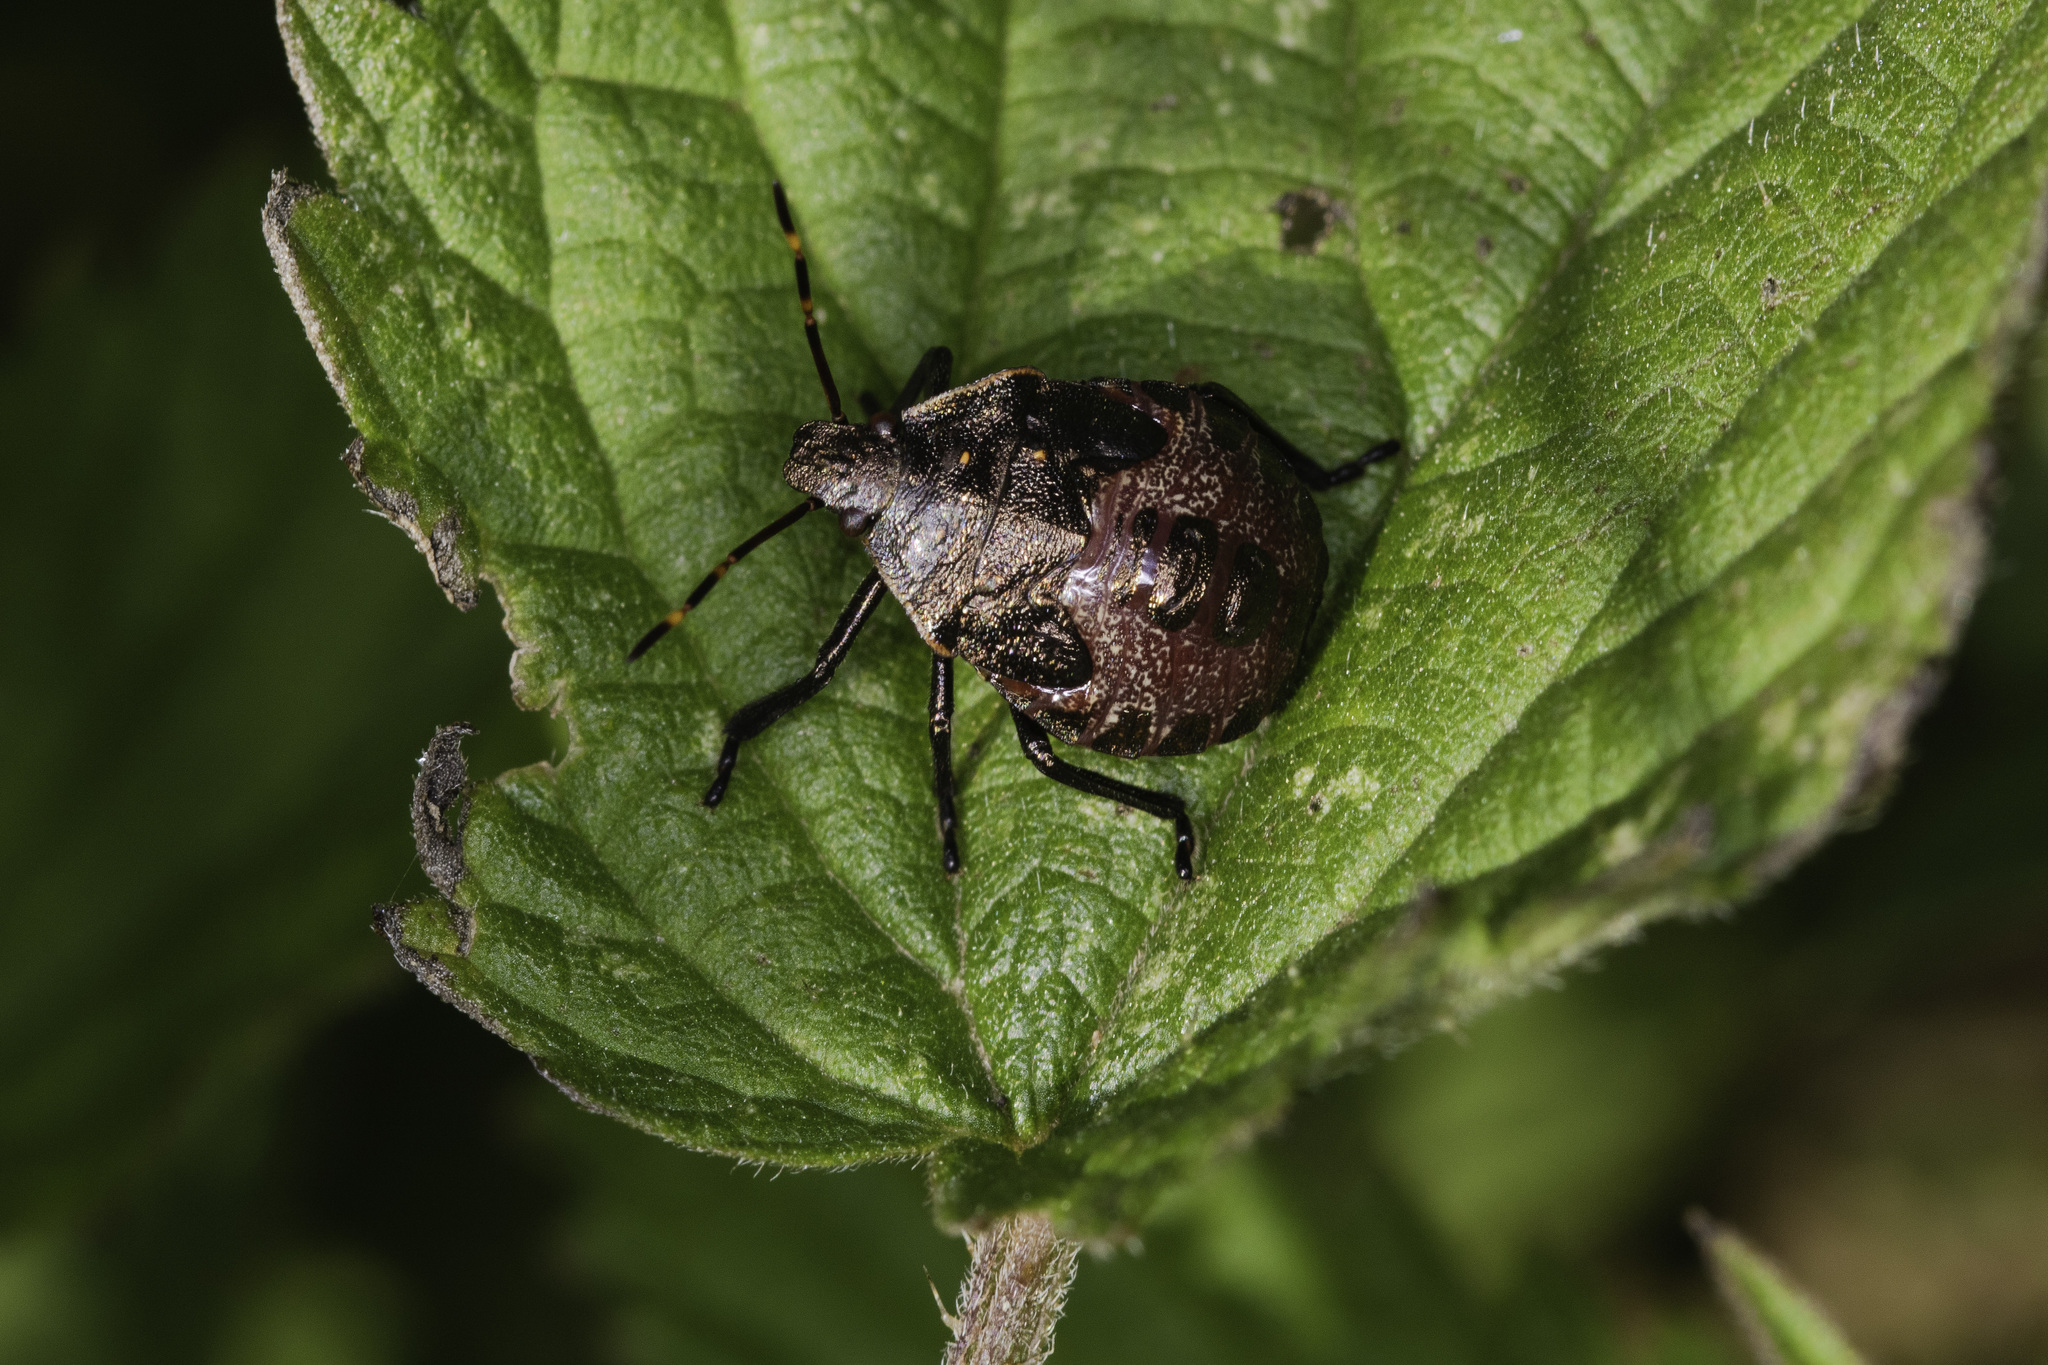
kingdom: Animalia
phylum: Arthropoda
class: Insecta
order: Hemiptera
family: Pentatomidae
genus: Picromerus
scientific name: Picromerus bidens
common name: Spiked shieldbug
